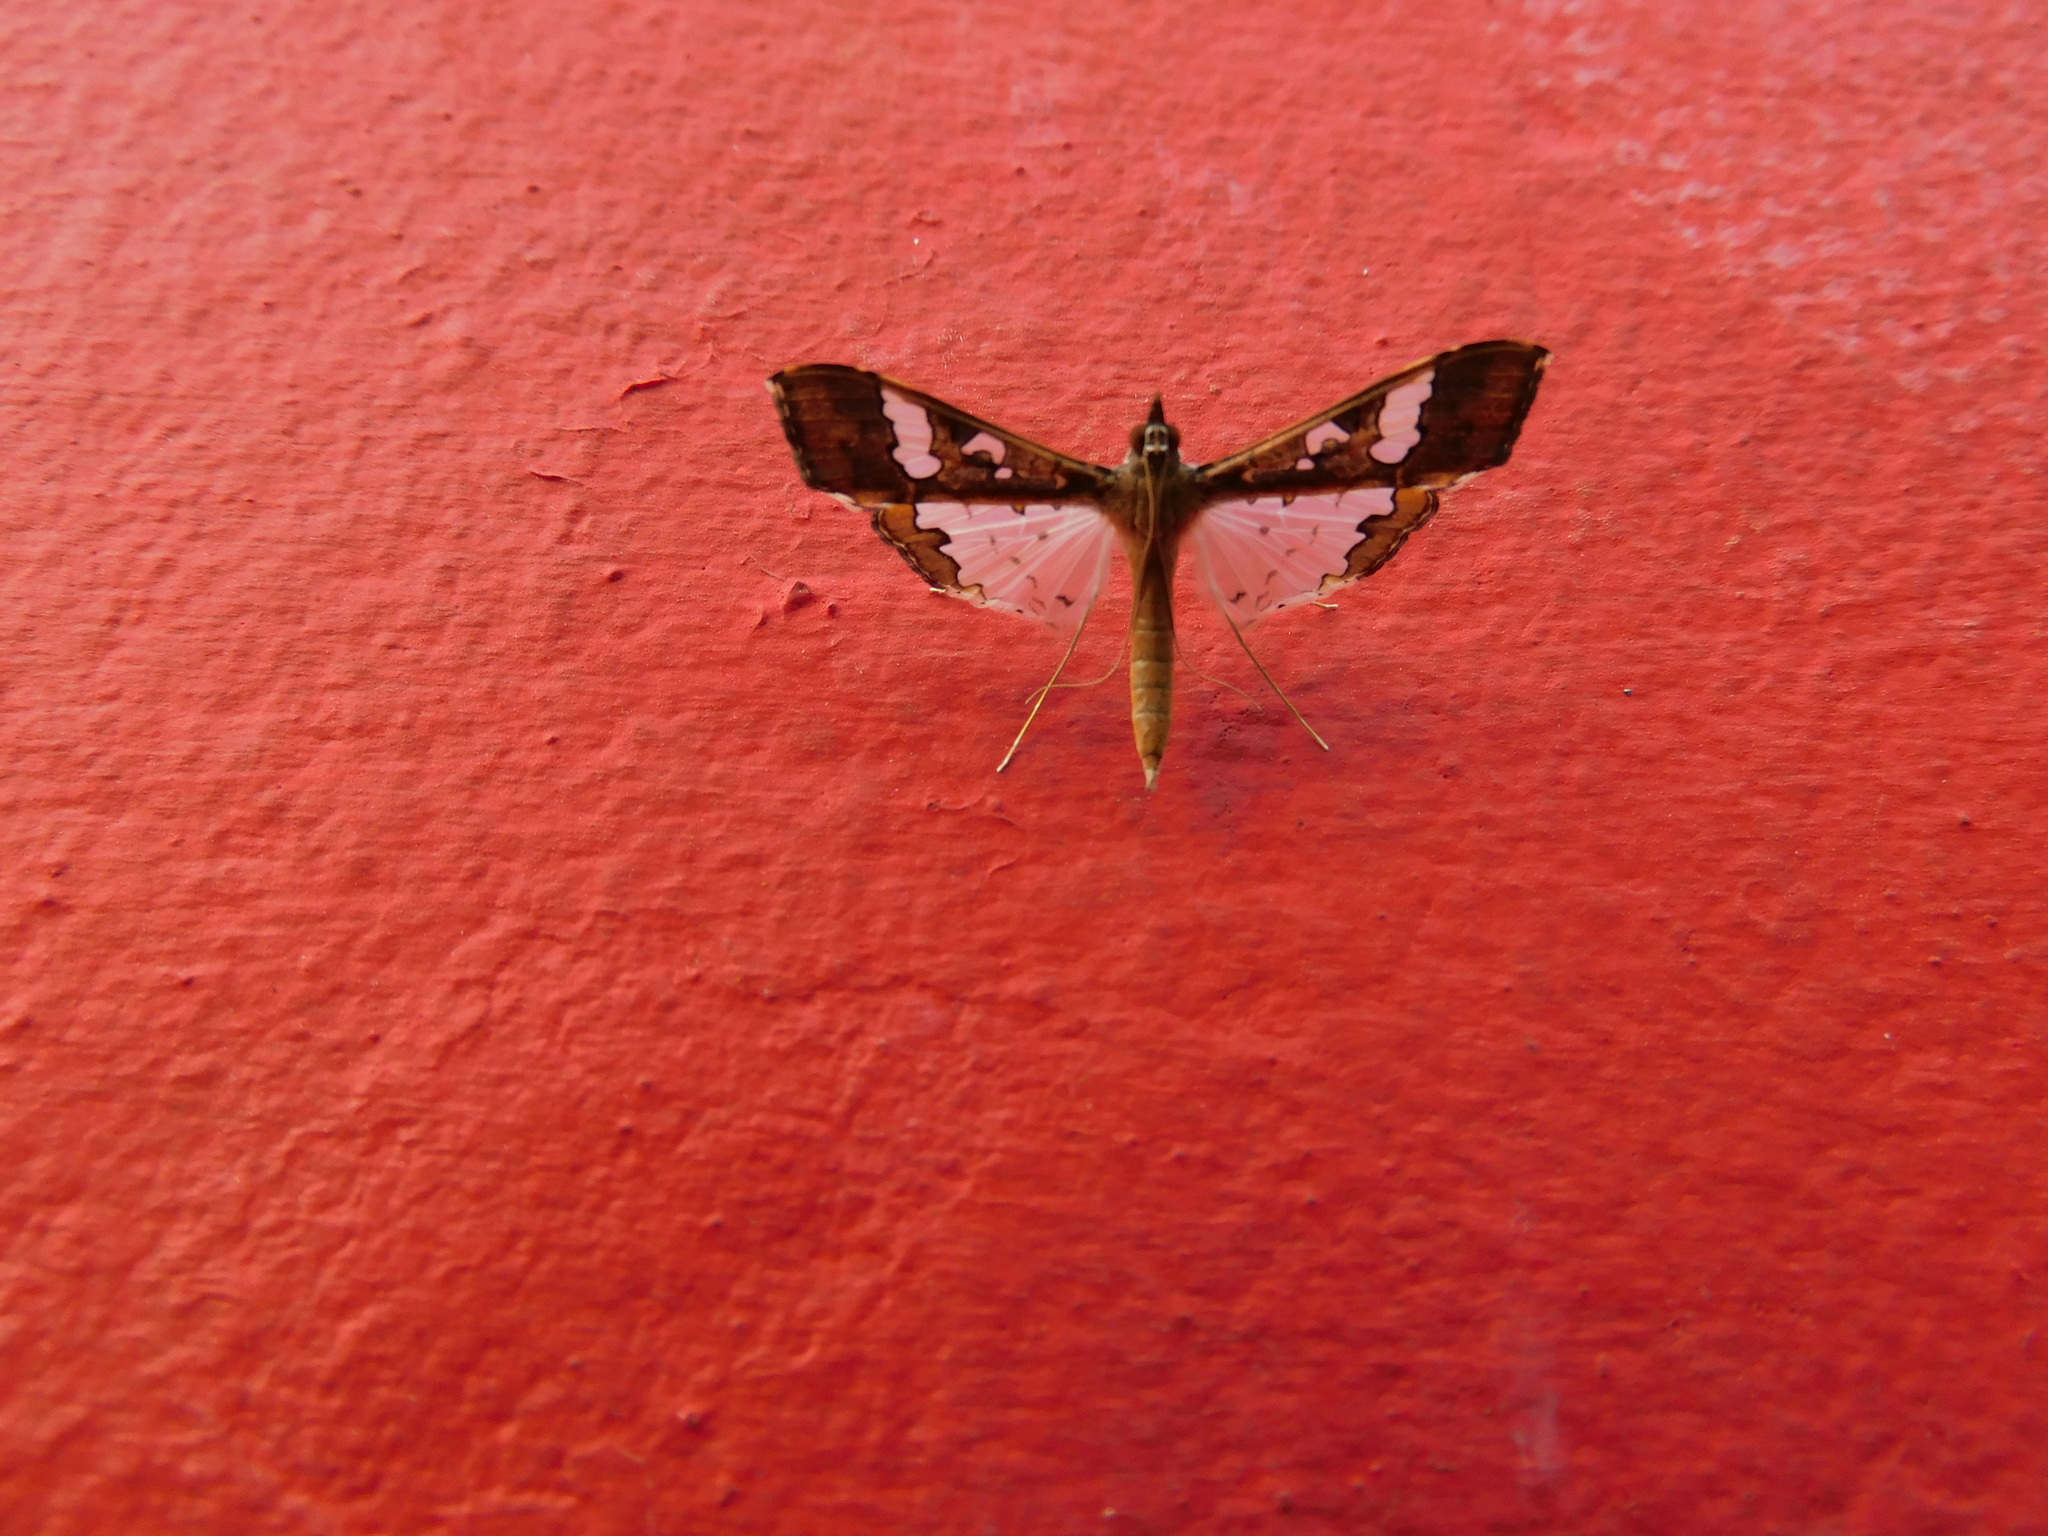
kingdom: Animalia
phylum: Arthropoda
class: Insecta
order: Lepidoptera
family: Crambidae
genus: Maruca
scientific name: Maruca vitrata
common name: Maruca pod borer
